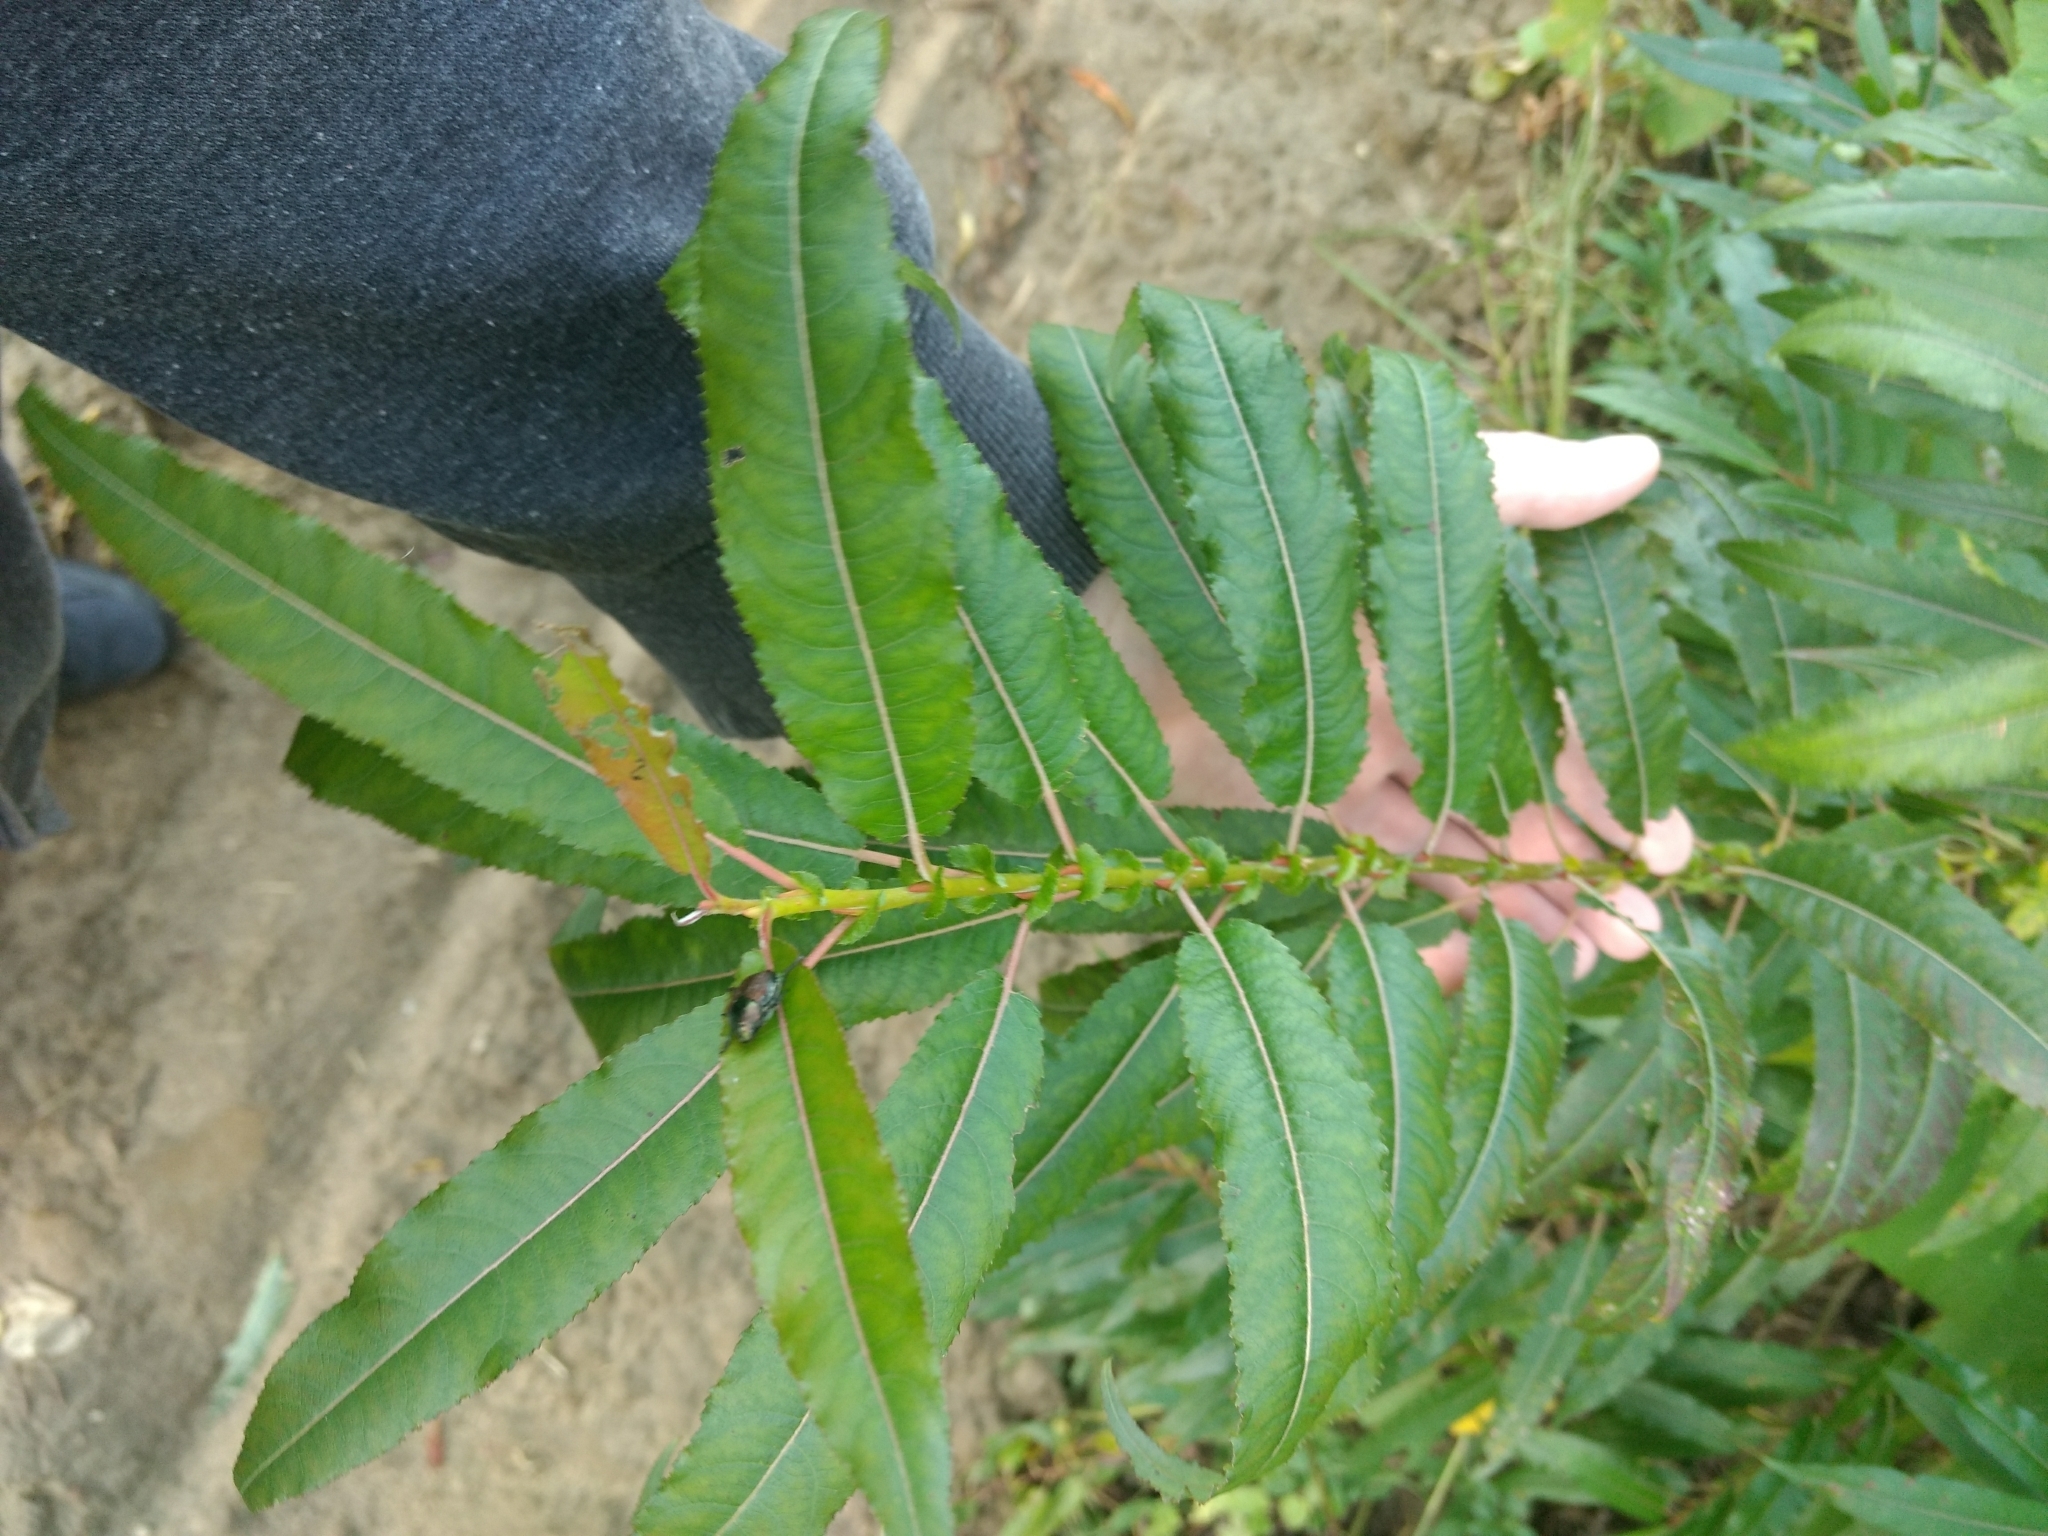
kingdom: Plantae
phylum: Tracheophyta
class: Magnoliopsida
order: Malpighiales
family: Salicaceae
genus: Salix
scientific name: Salix eriocephala
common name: Heart-leaved willow
